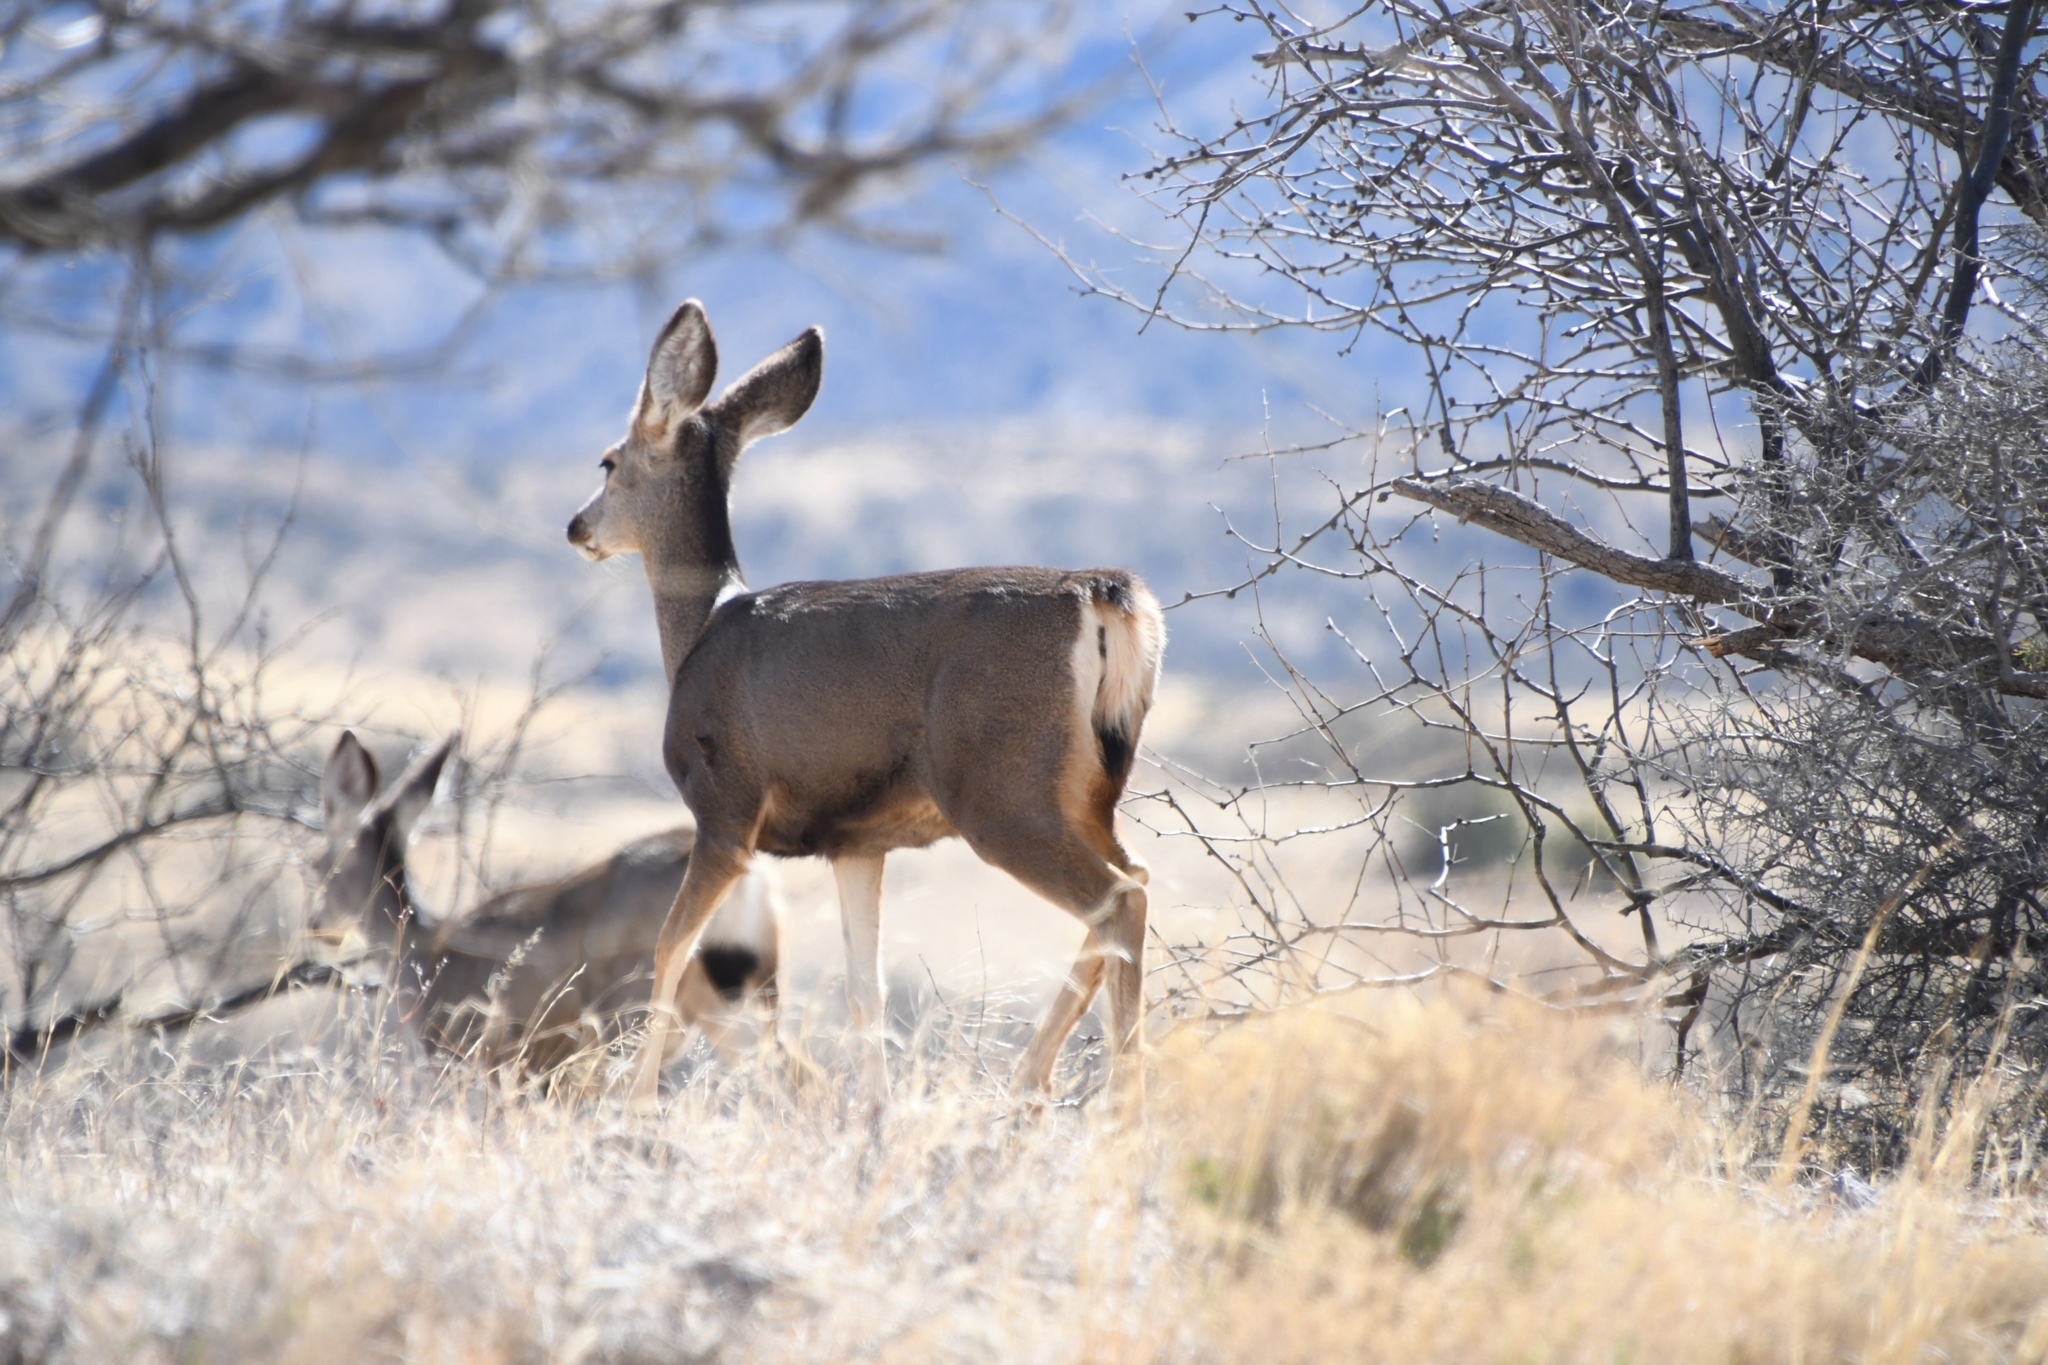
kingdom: Animalia
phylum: Chordata
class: Mammalia
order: Artiodactyla
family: Cervidae
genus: Odocoileus
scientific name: Odocoileus hemionus
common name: Mule deer
